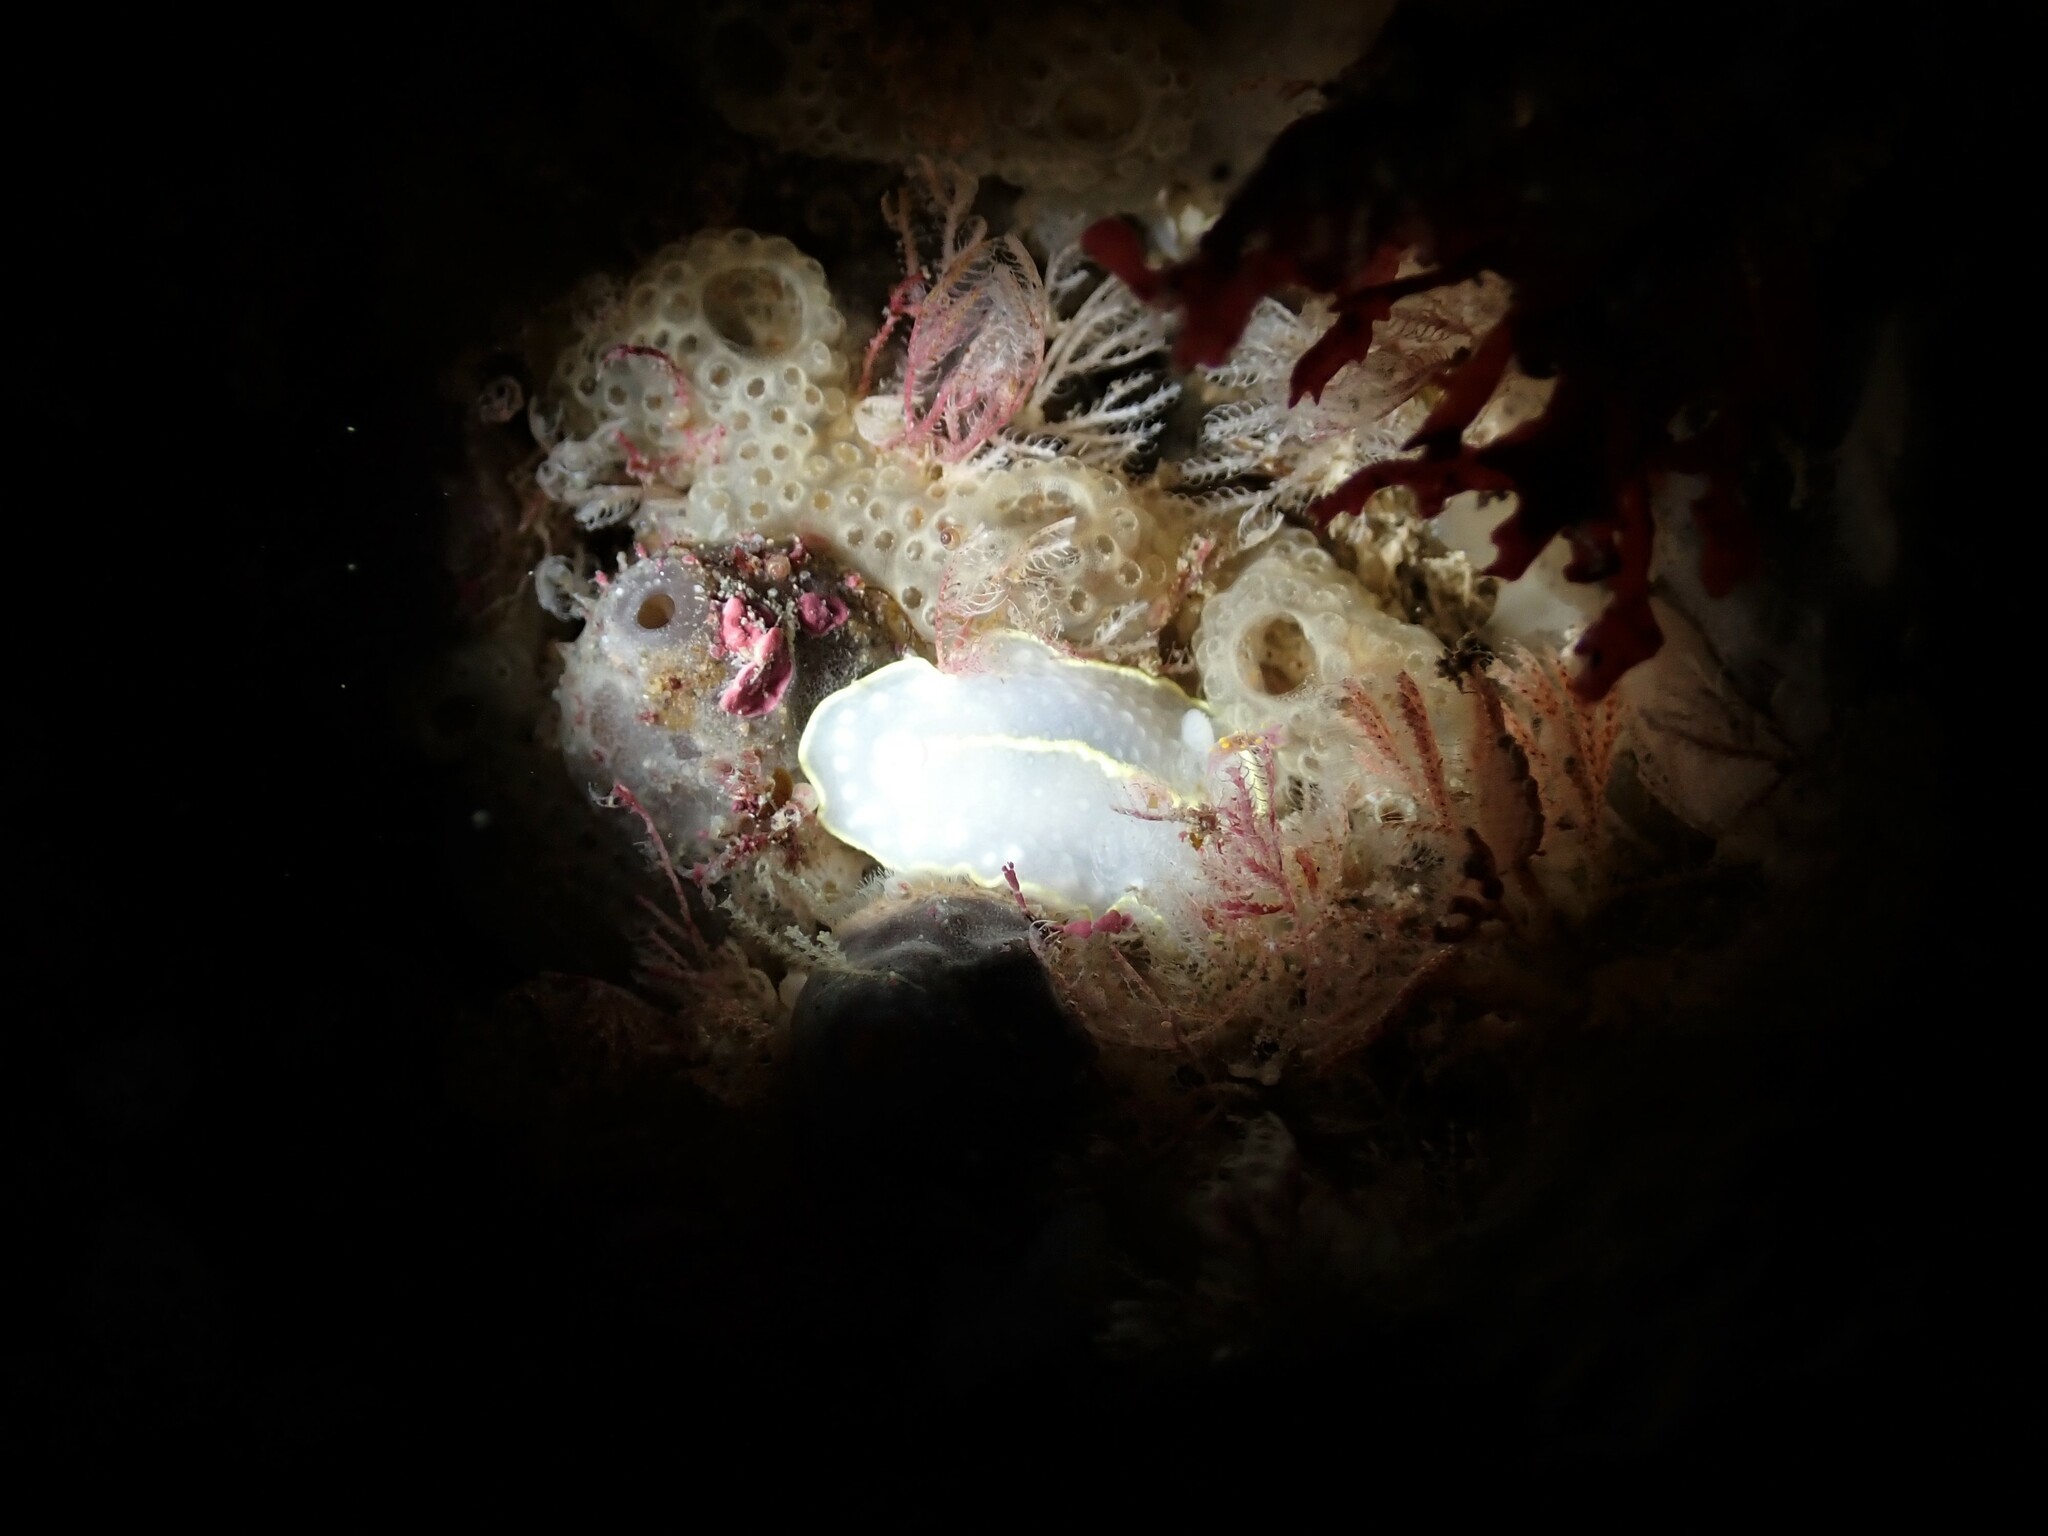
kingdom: Animalia
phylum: Mollusca
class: Gastropoda
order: Nudibranchia
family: Cadlinidae
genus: Cadlina
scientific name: Cadlina willani
